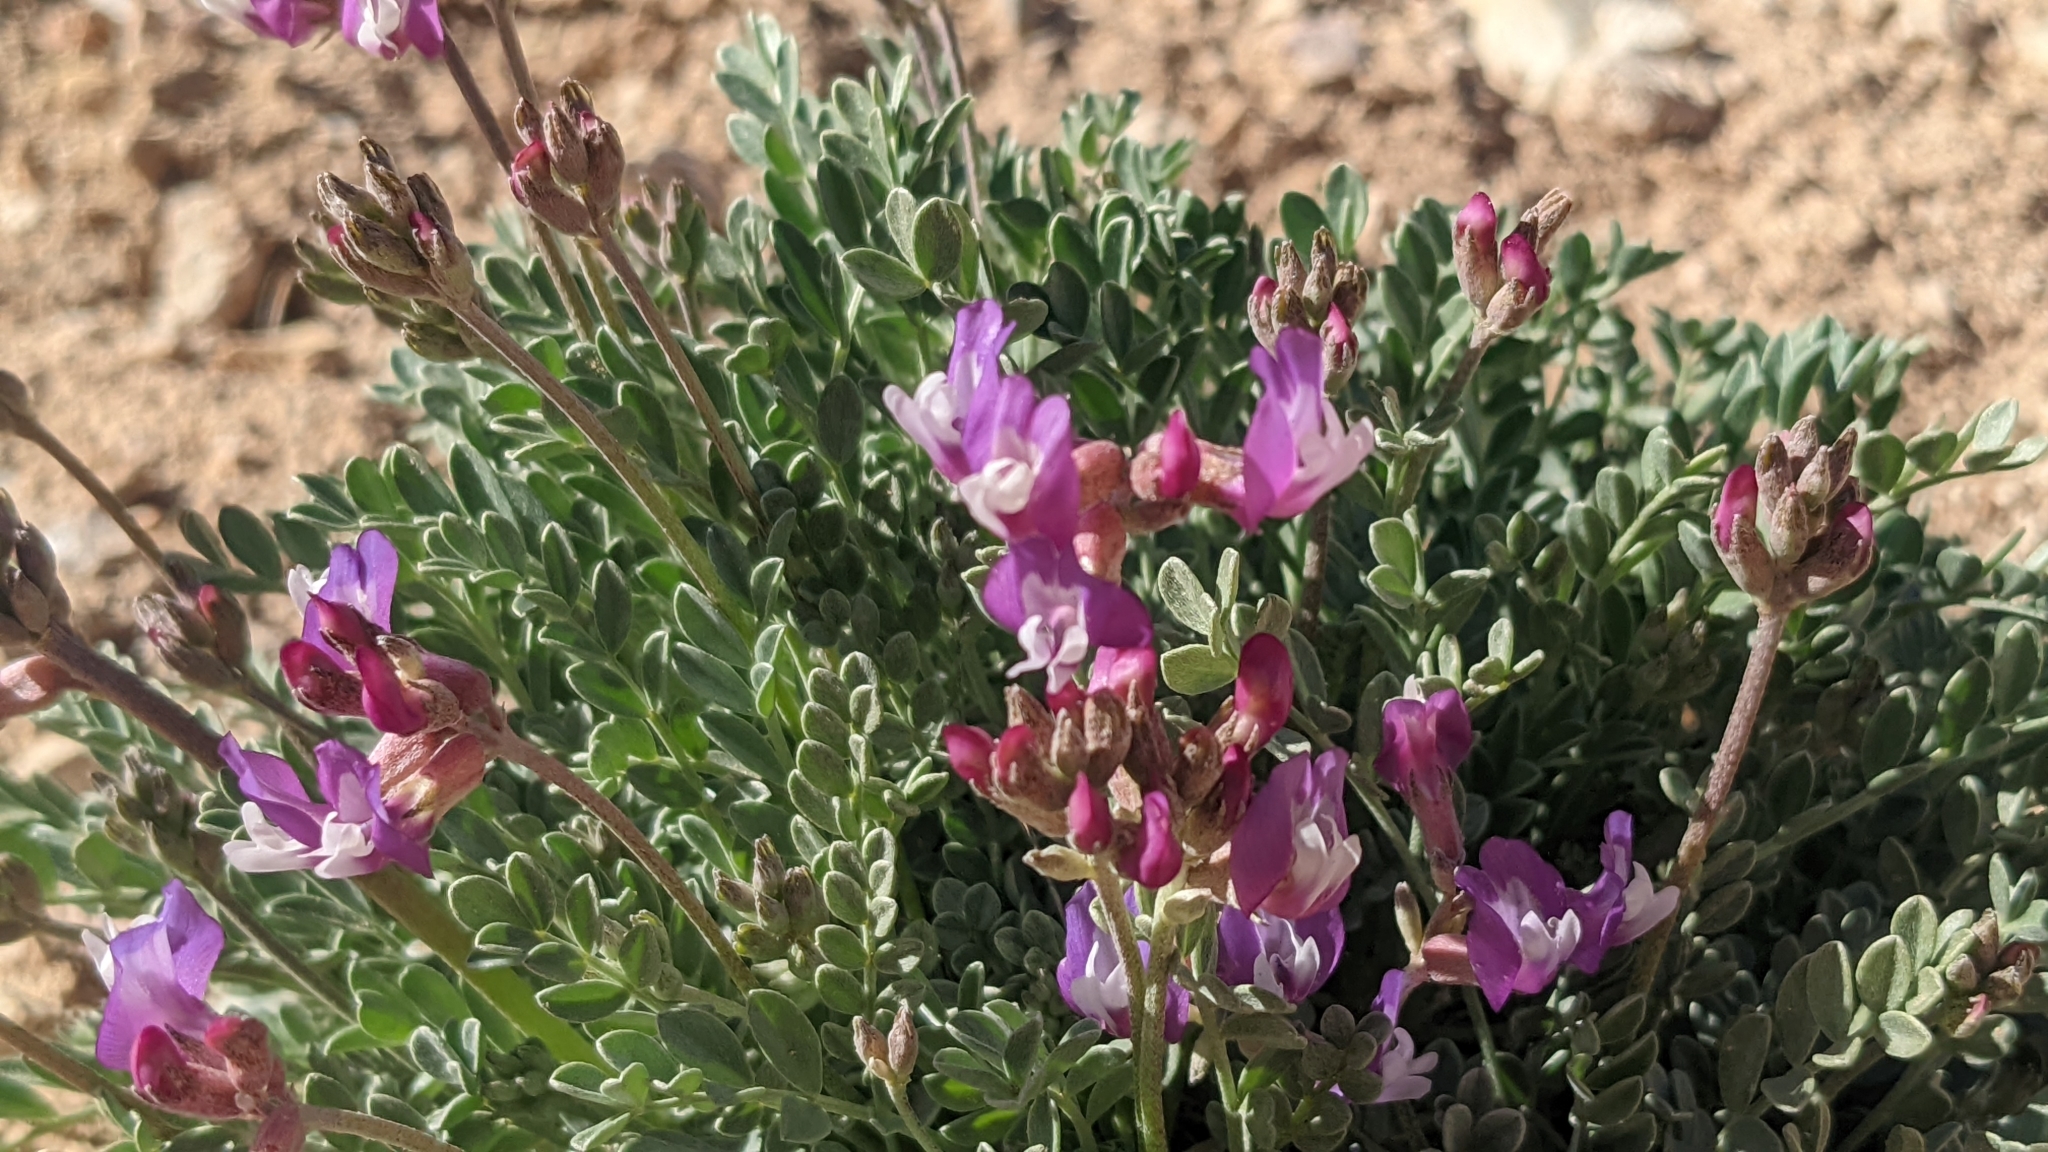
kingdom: Plantae
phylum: Tracheophyta
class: Magnoliopsida
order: Fabales
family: Fabaceae
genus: Astragalus
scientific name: Astragalus calycosus
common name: King's milkvetch
